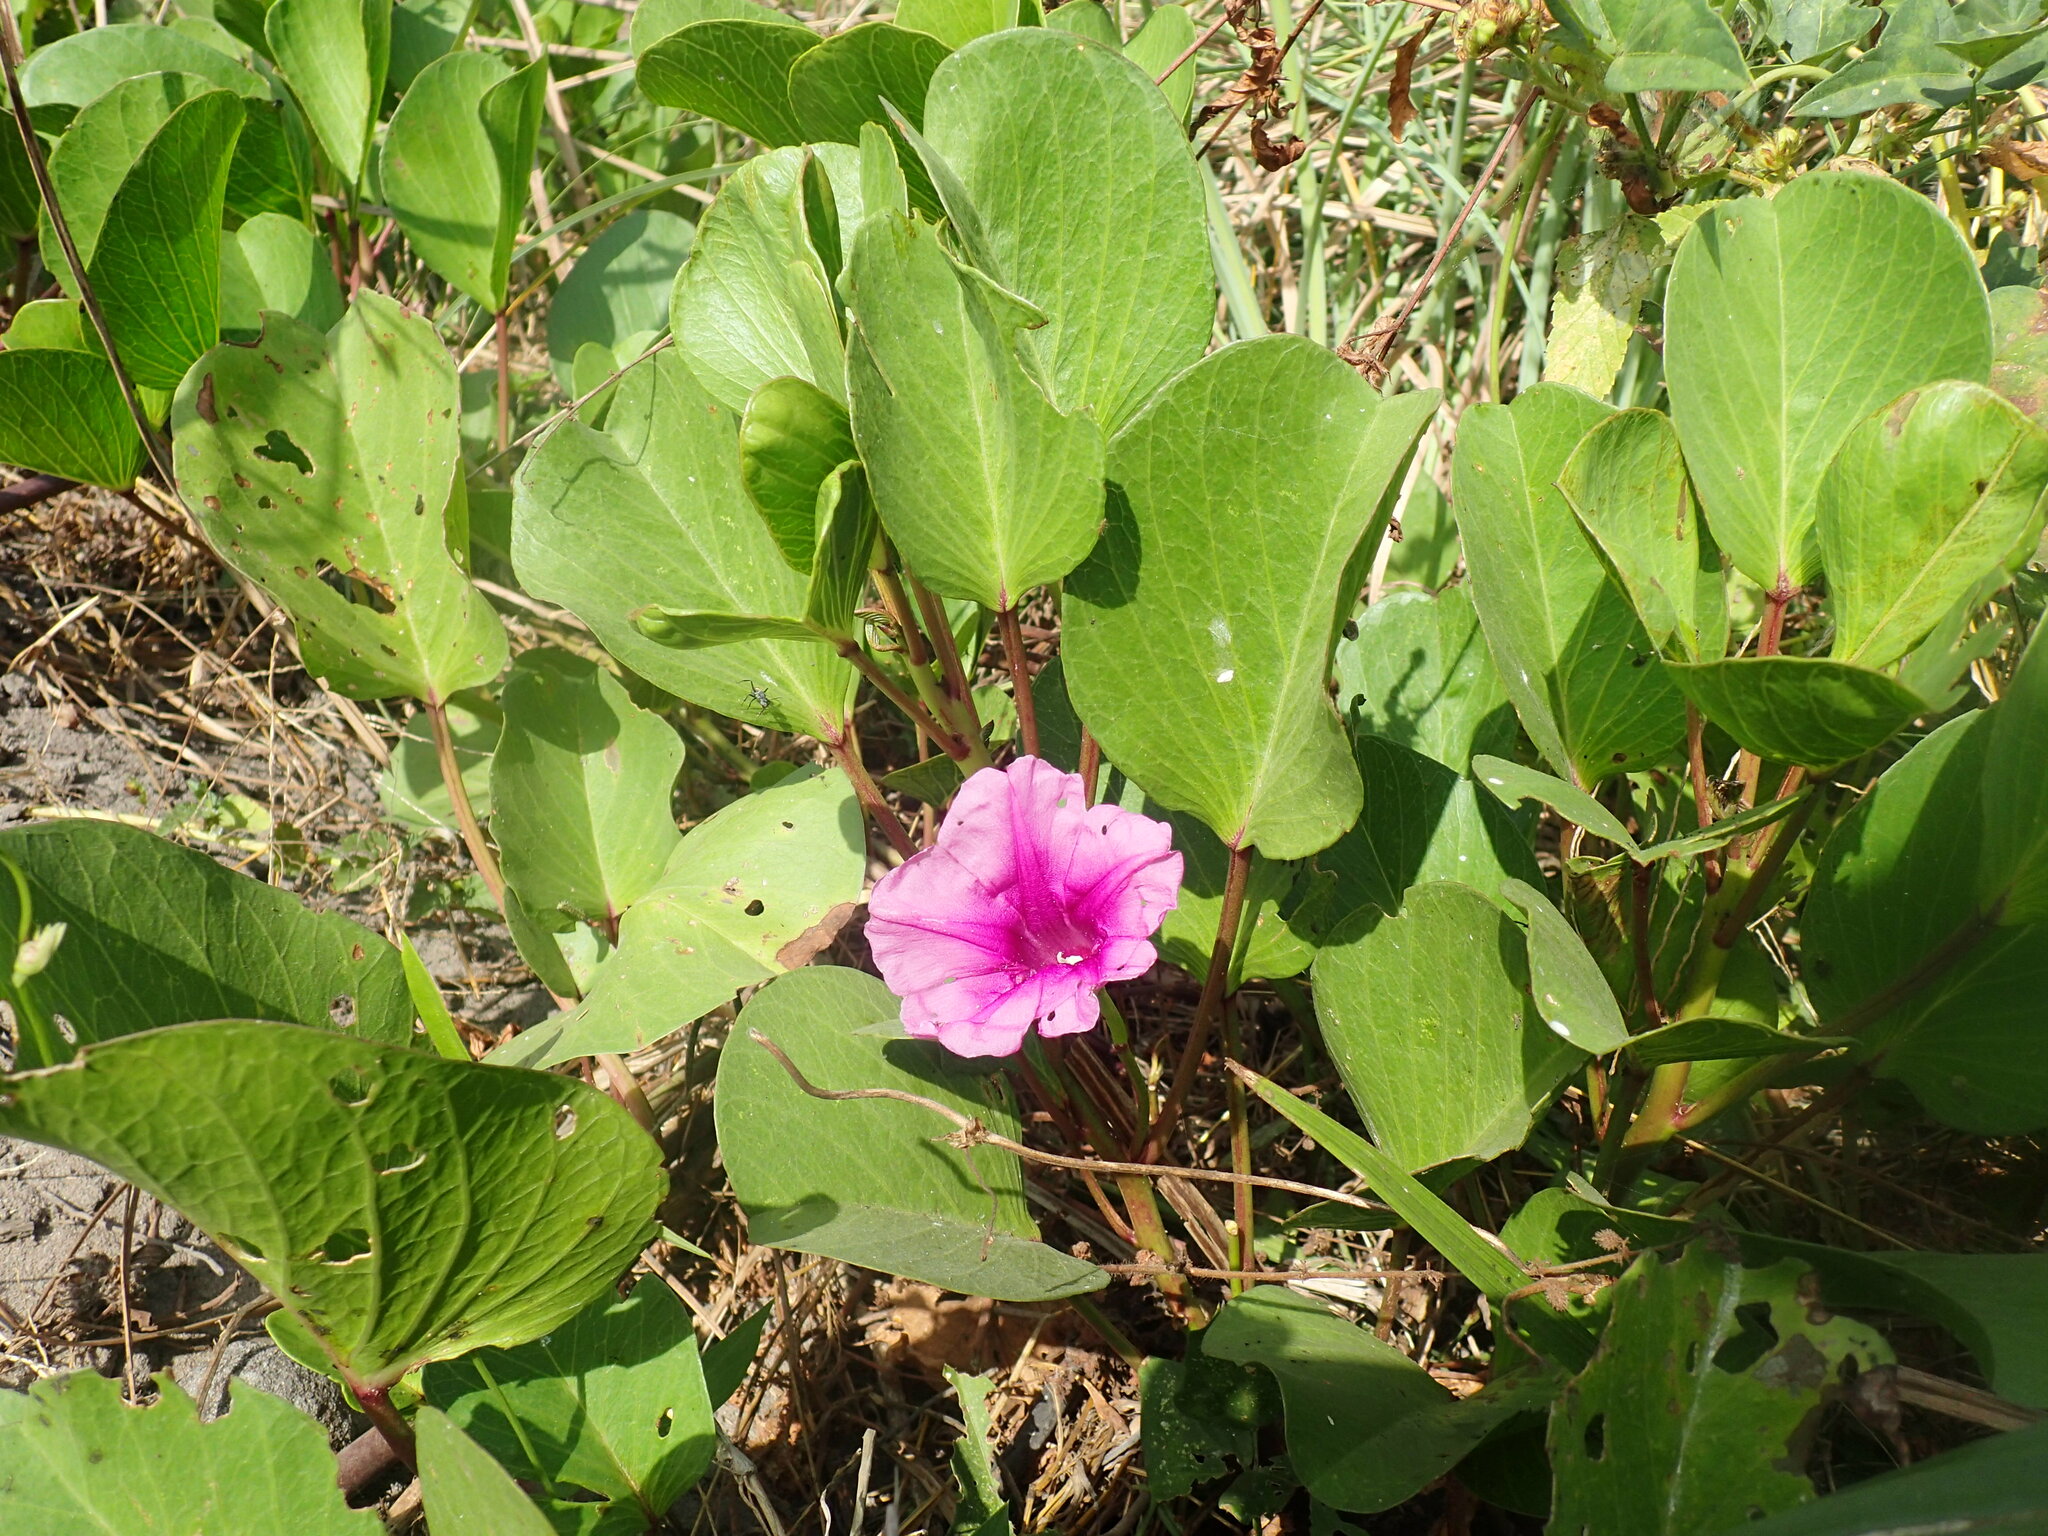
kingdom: Plantae
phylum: Tracheophyta
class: Magnoliopsida
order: Solanales
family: Convolvulaceae
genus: Ipomoea
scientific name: Ipomoea pes-caprae
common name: Beach morning glory
